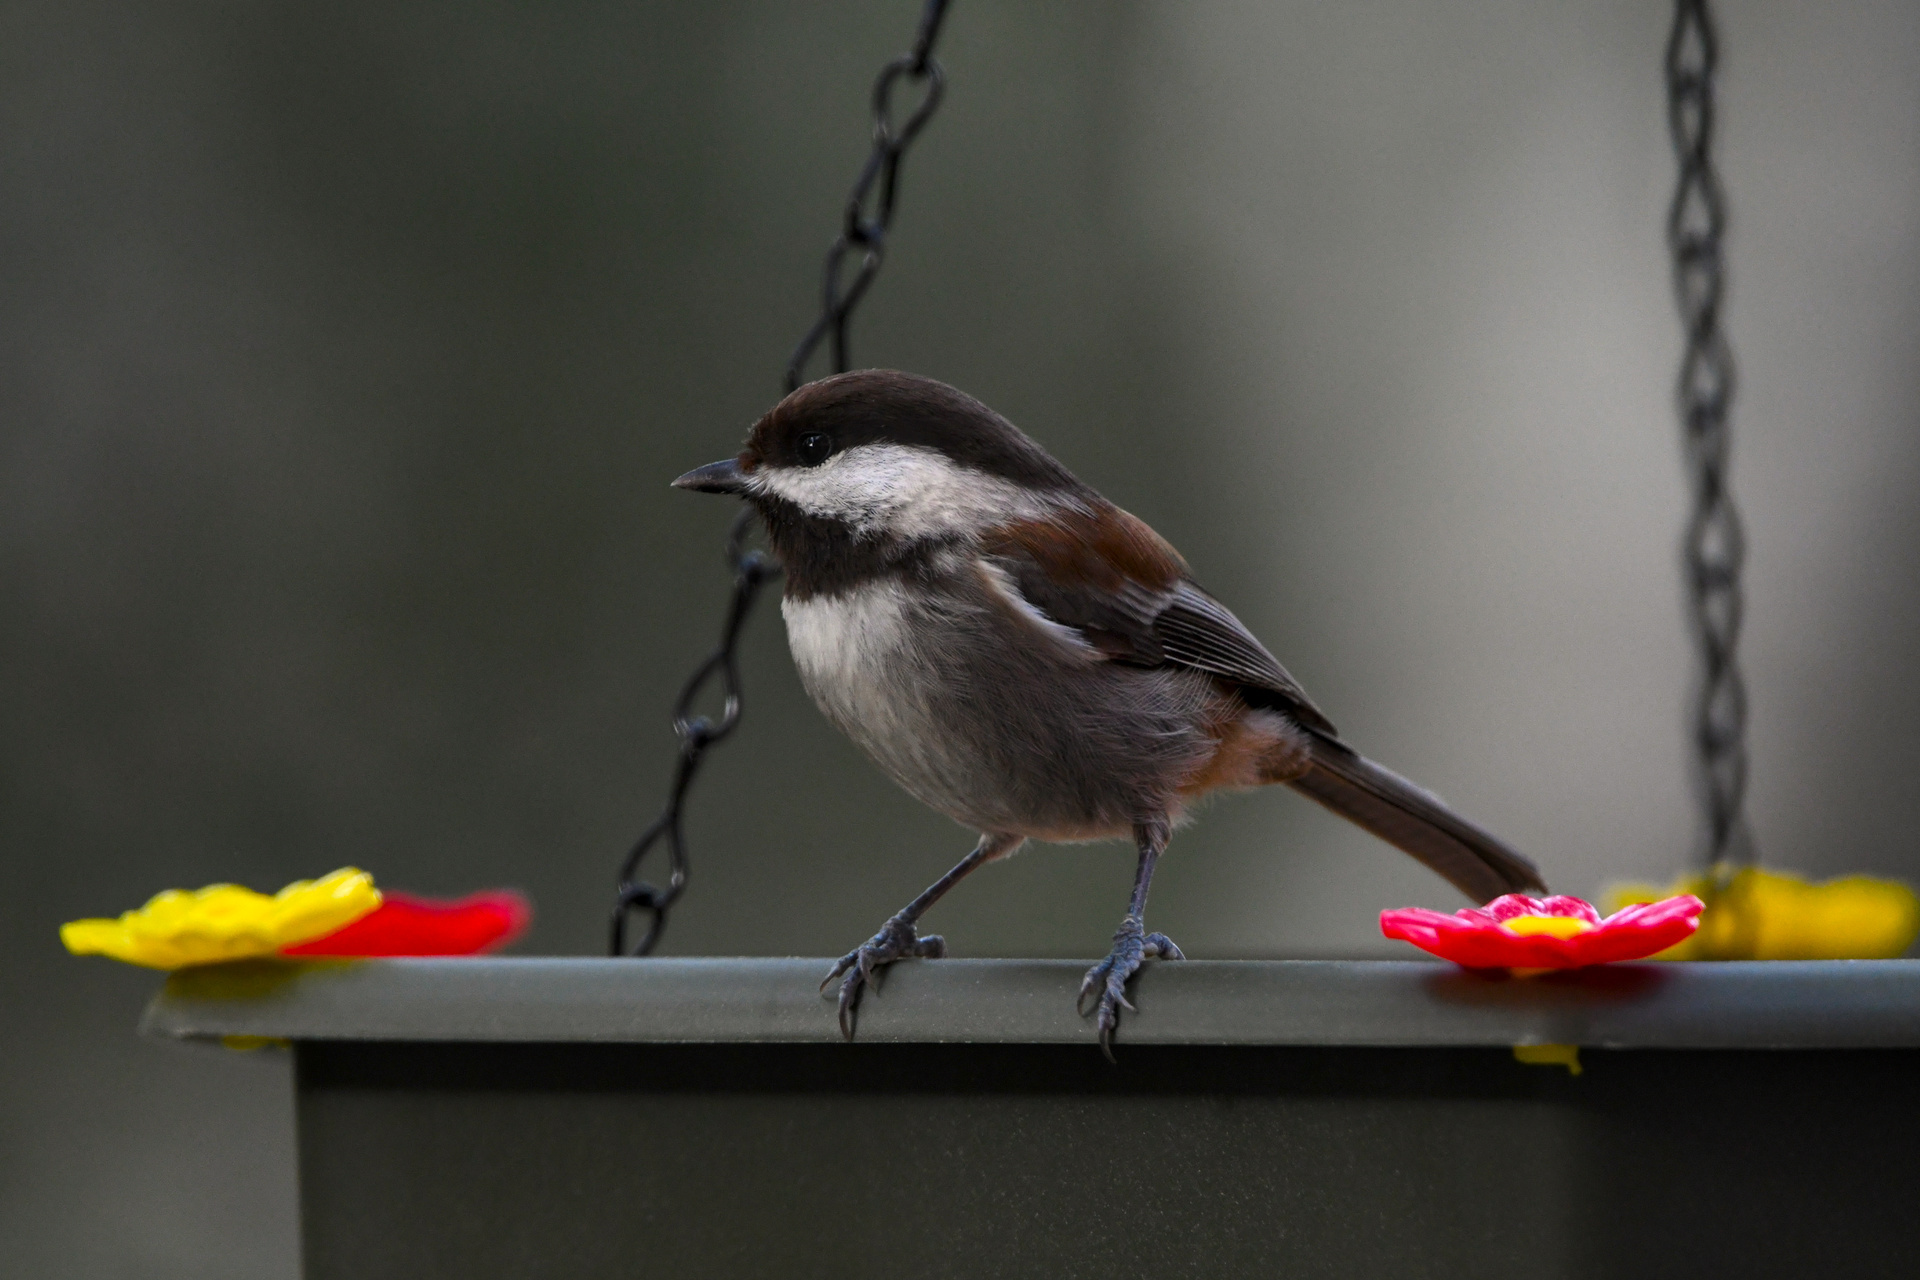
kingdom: Animalia
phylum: Chordata
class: Aves
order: Passeriformes
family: Paridae
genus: Poecile
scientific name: Poecile rufescens
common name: Chestnut-backed chickadee
